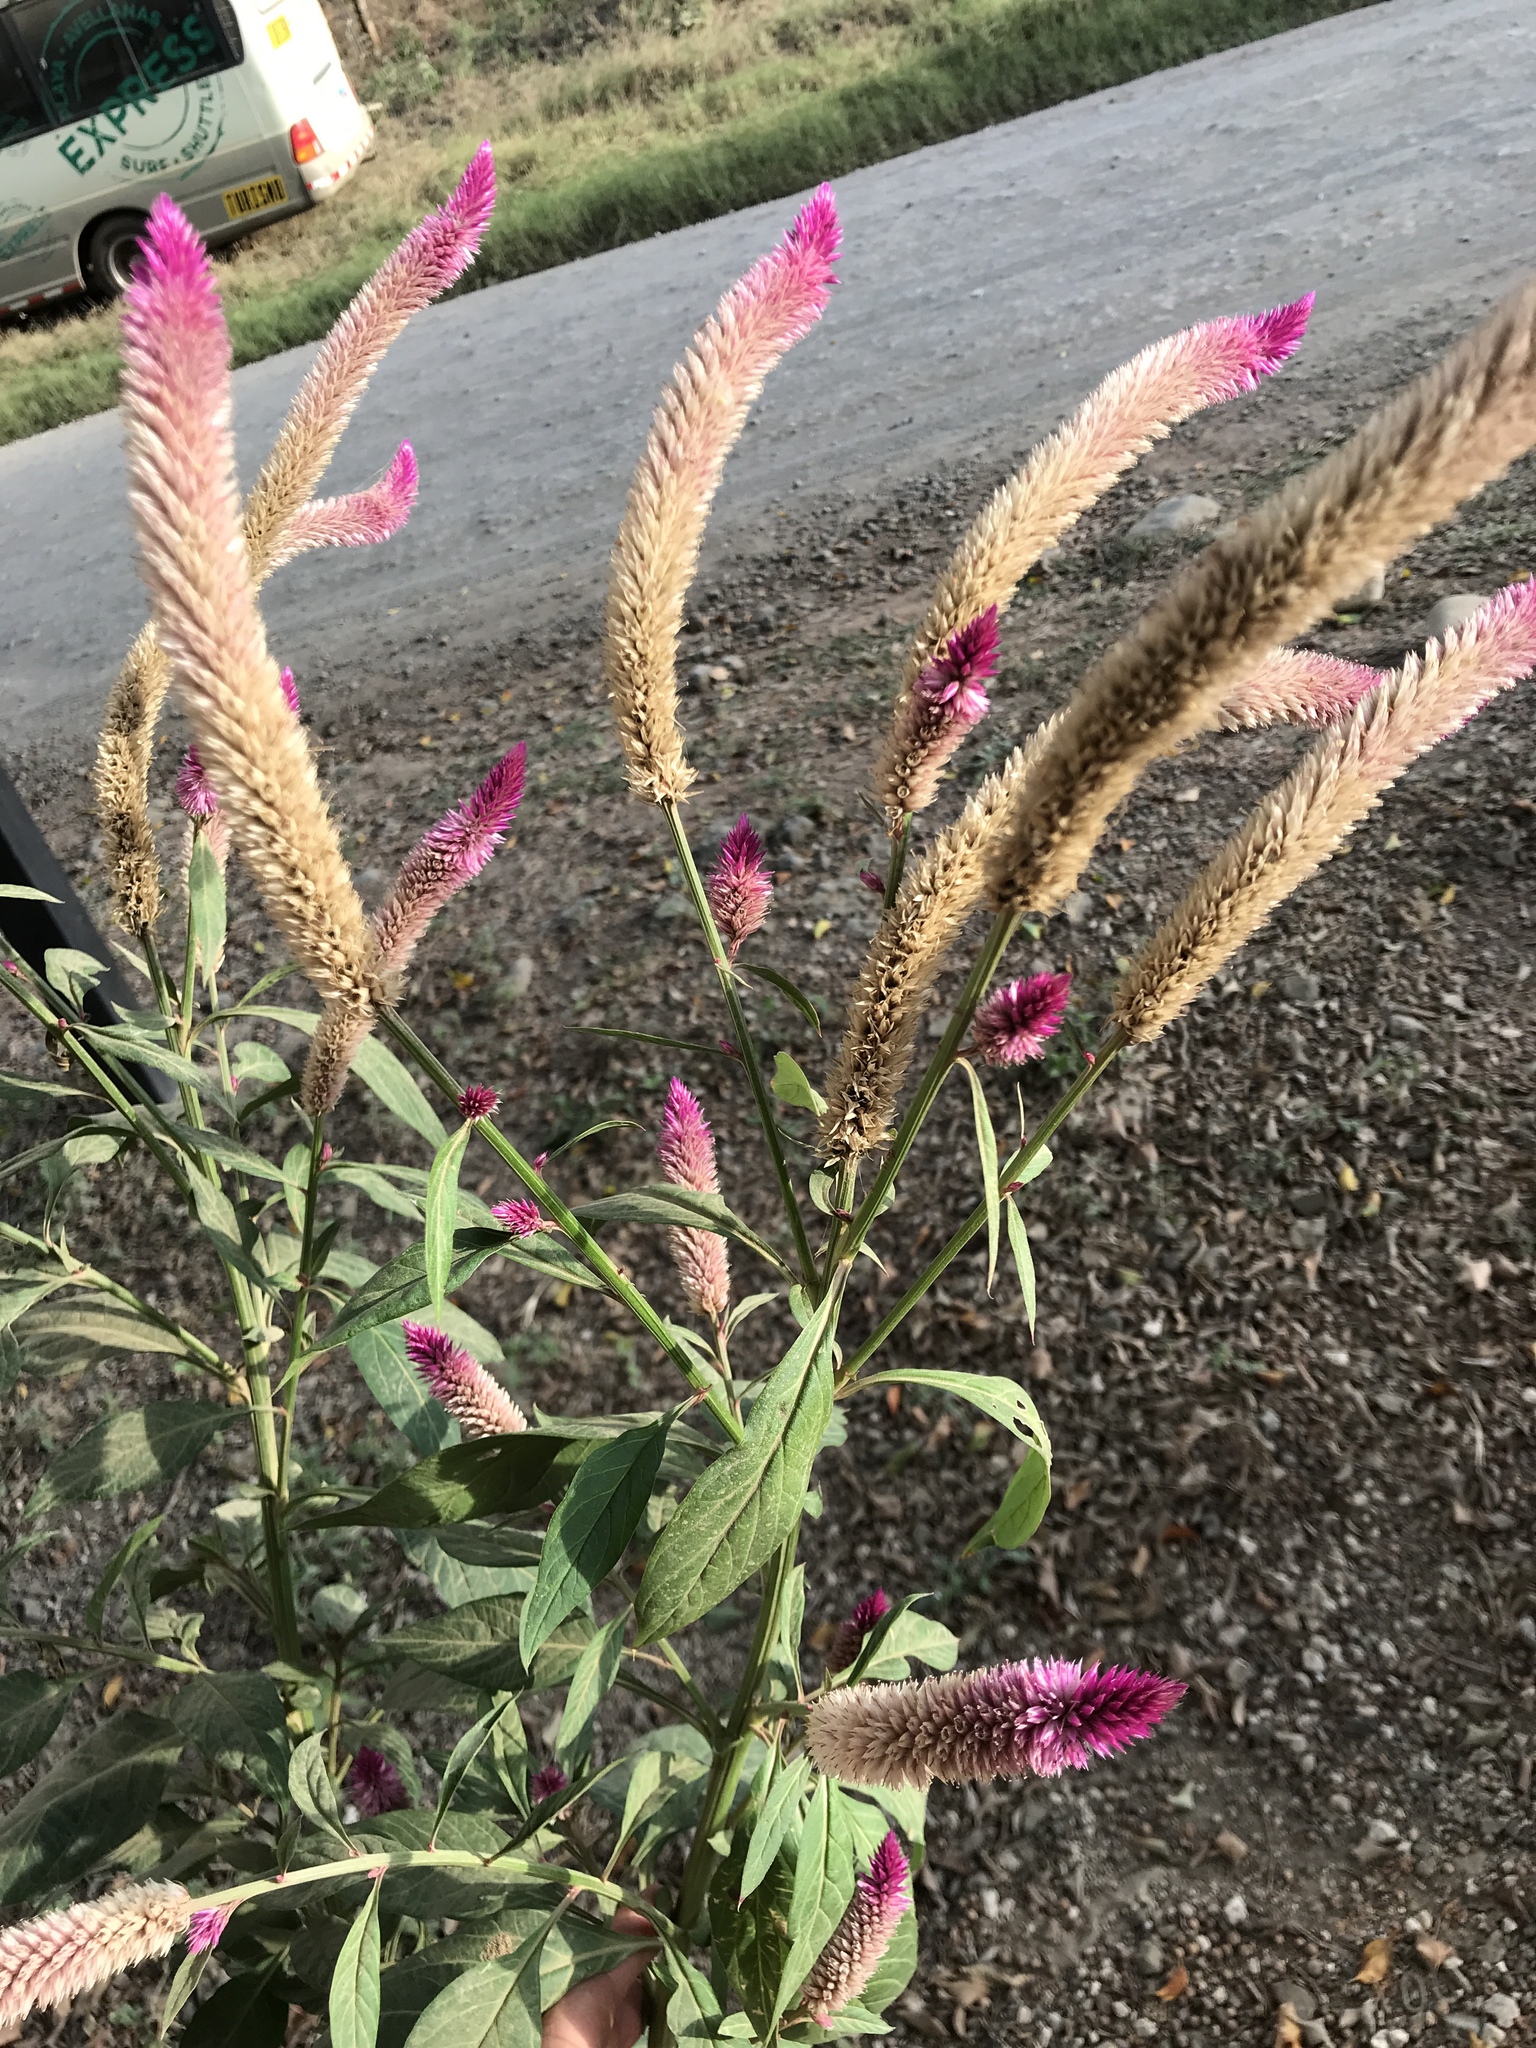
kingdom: Plantae
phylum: Tracheophyta
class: Magnoliopsida
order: Caryophyllales
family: Amaranthaceae
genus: Celosia
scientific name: Celosia argentea
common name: Feather cockscomb
